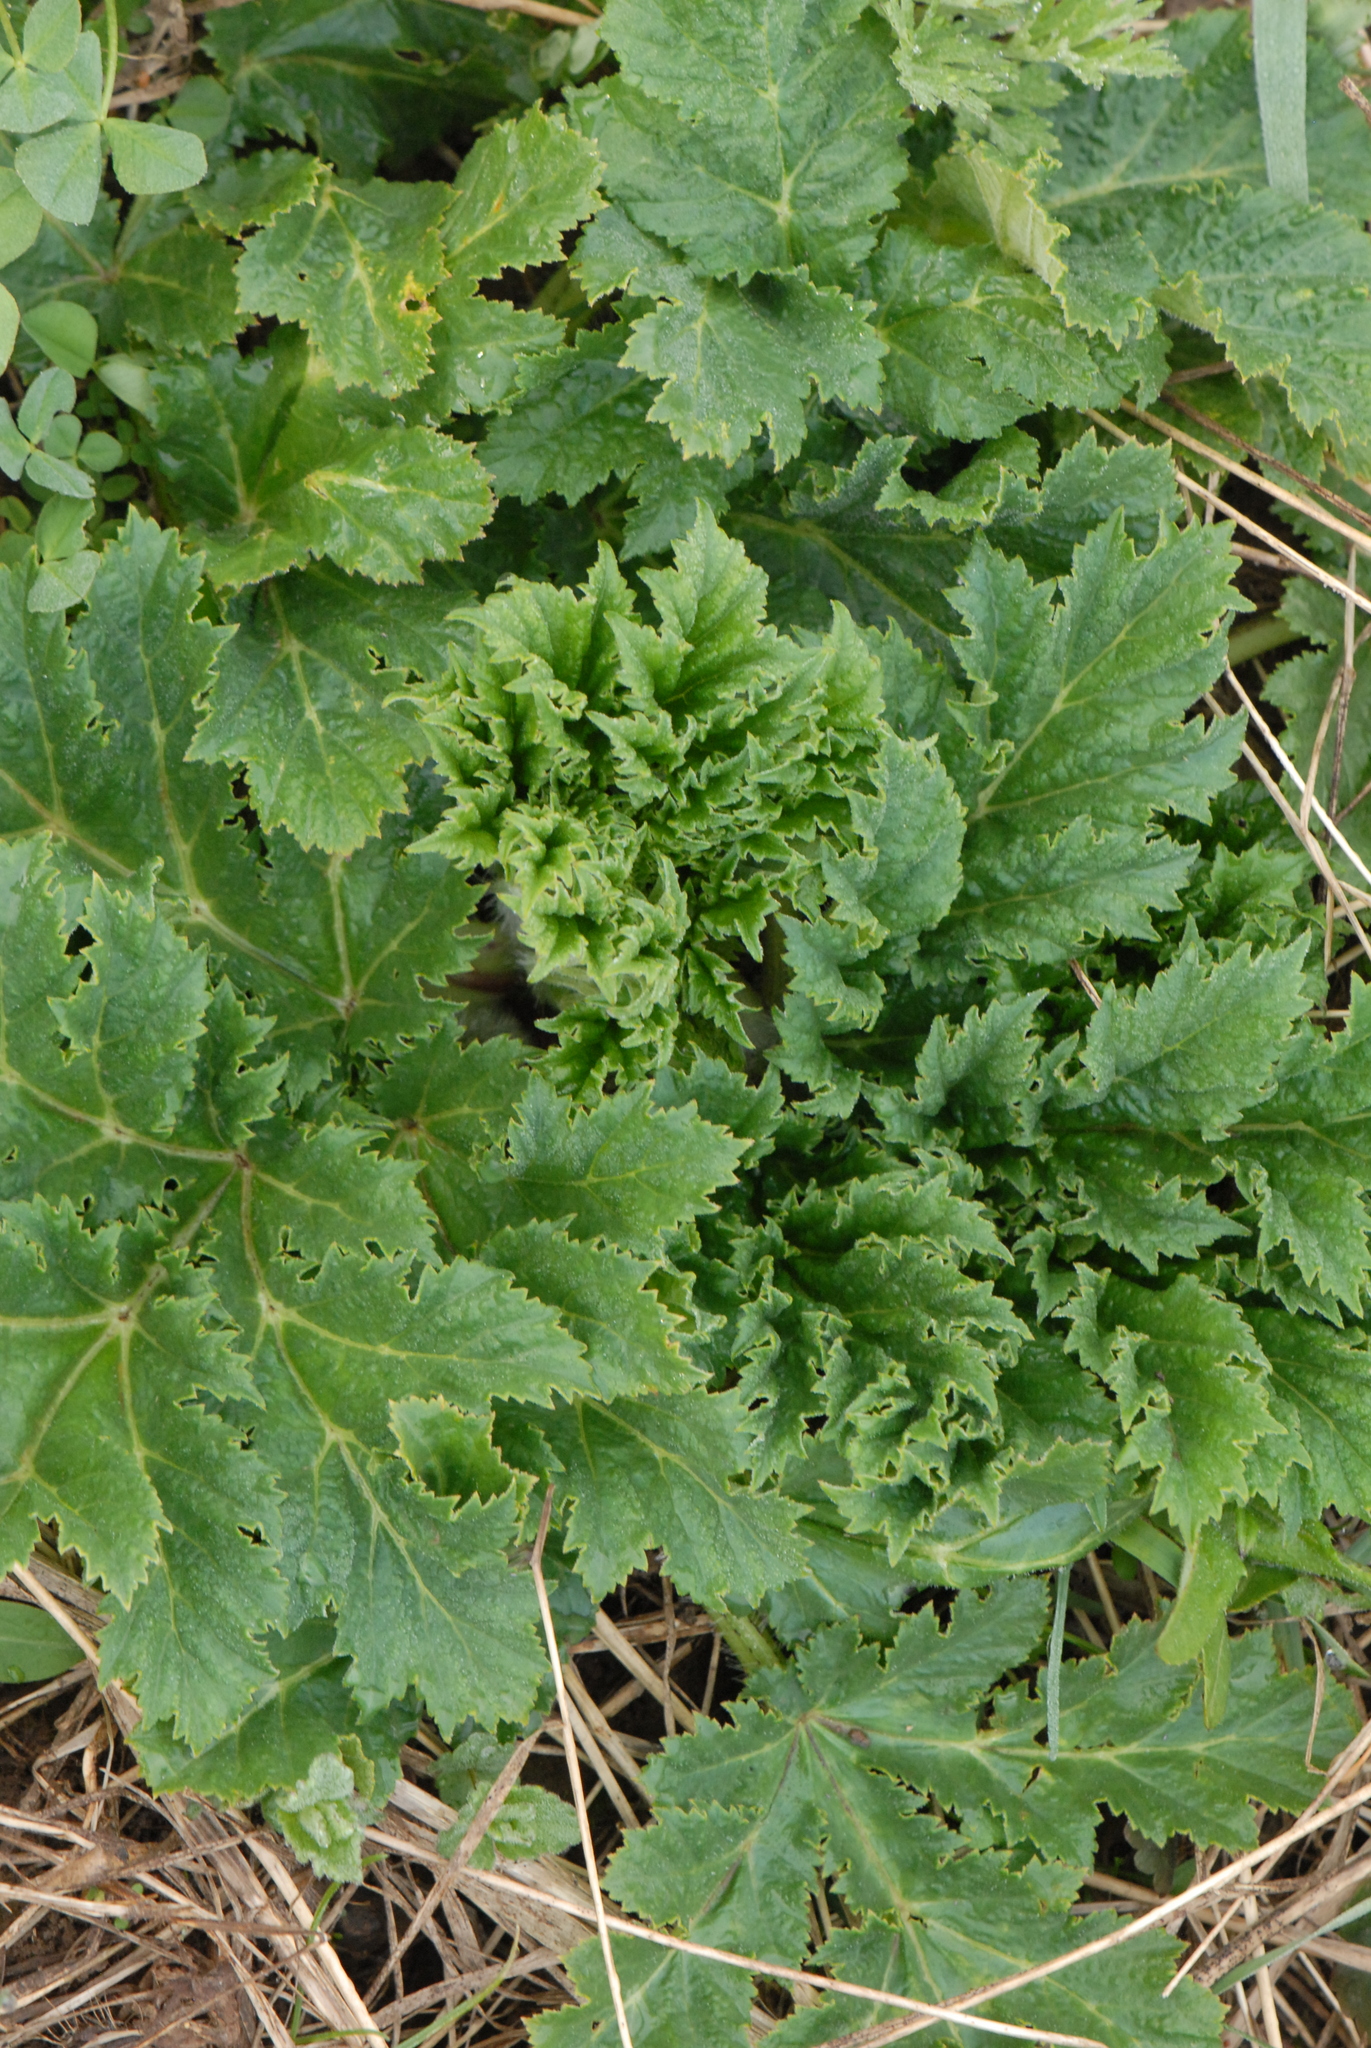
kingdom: Plantae
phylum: Tracheophyta
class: Magnoliopsida
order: Apiales
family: Apiaceae
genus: Heracleum
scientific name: Heracleum sosnowskyi
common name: Sosnowsky's hogweed
